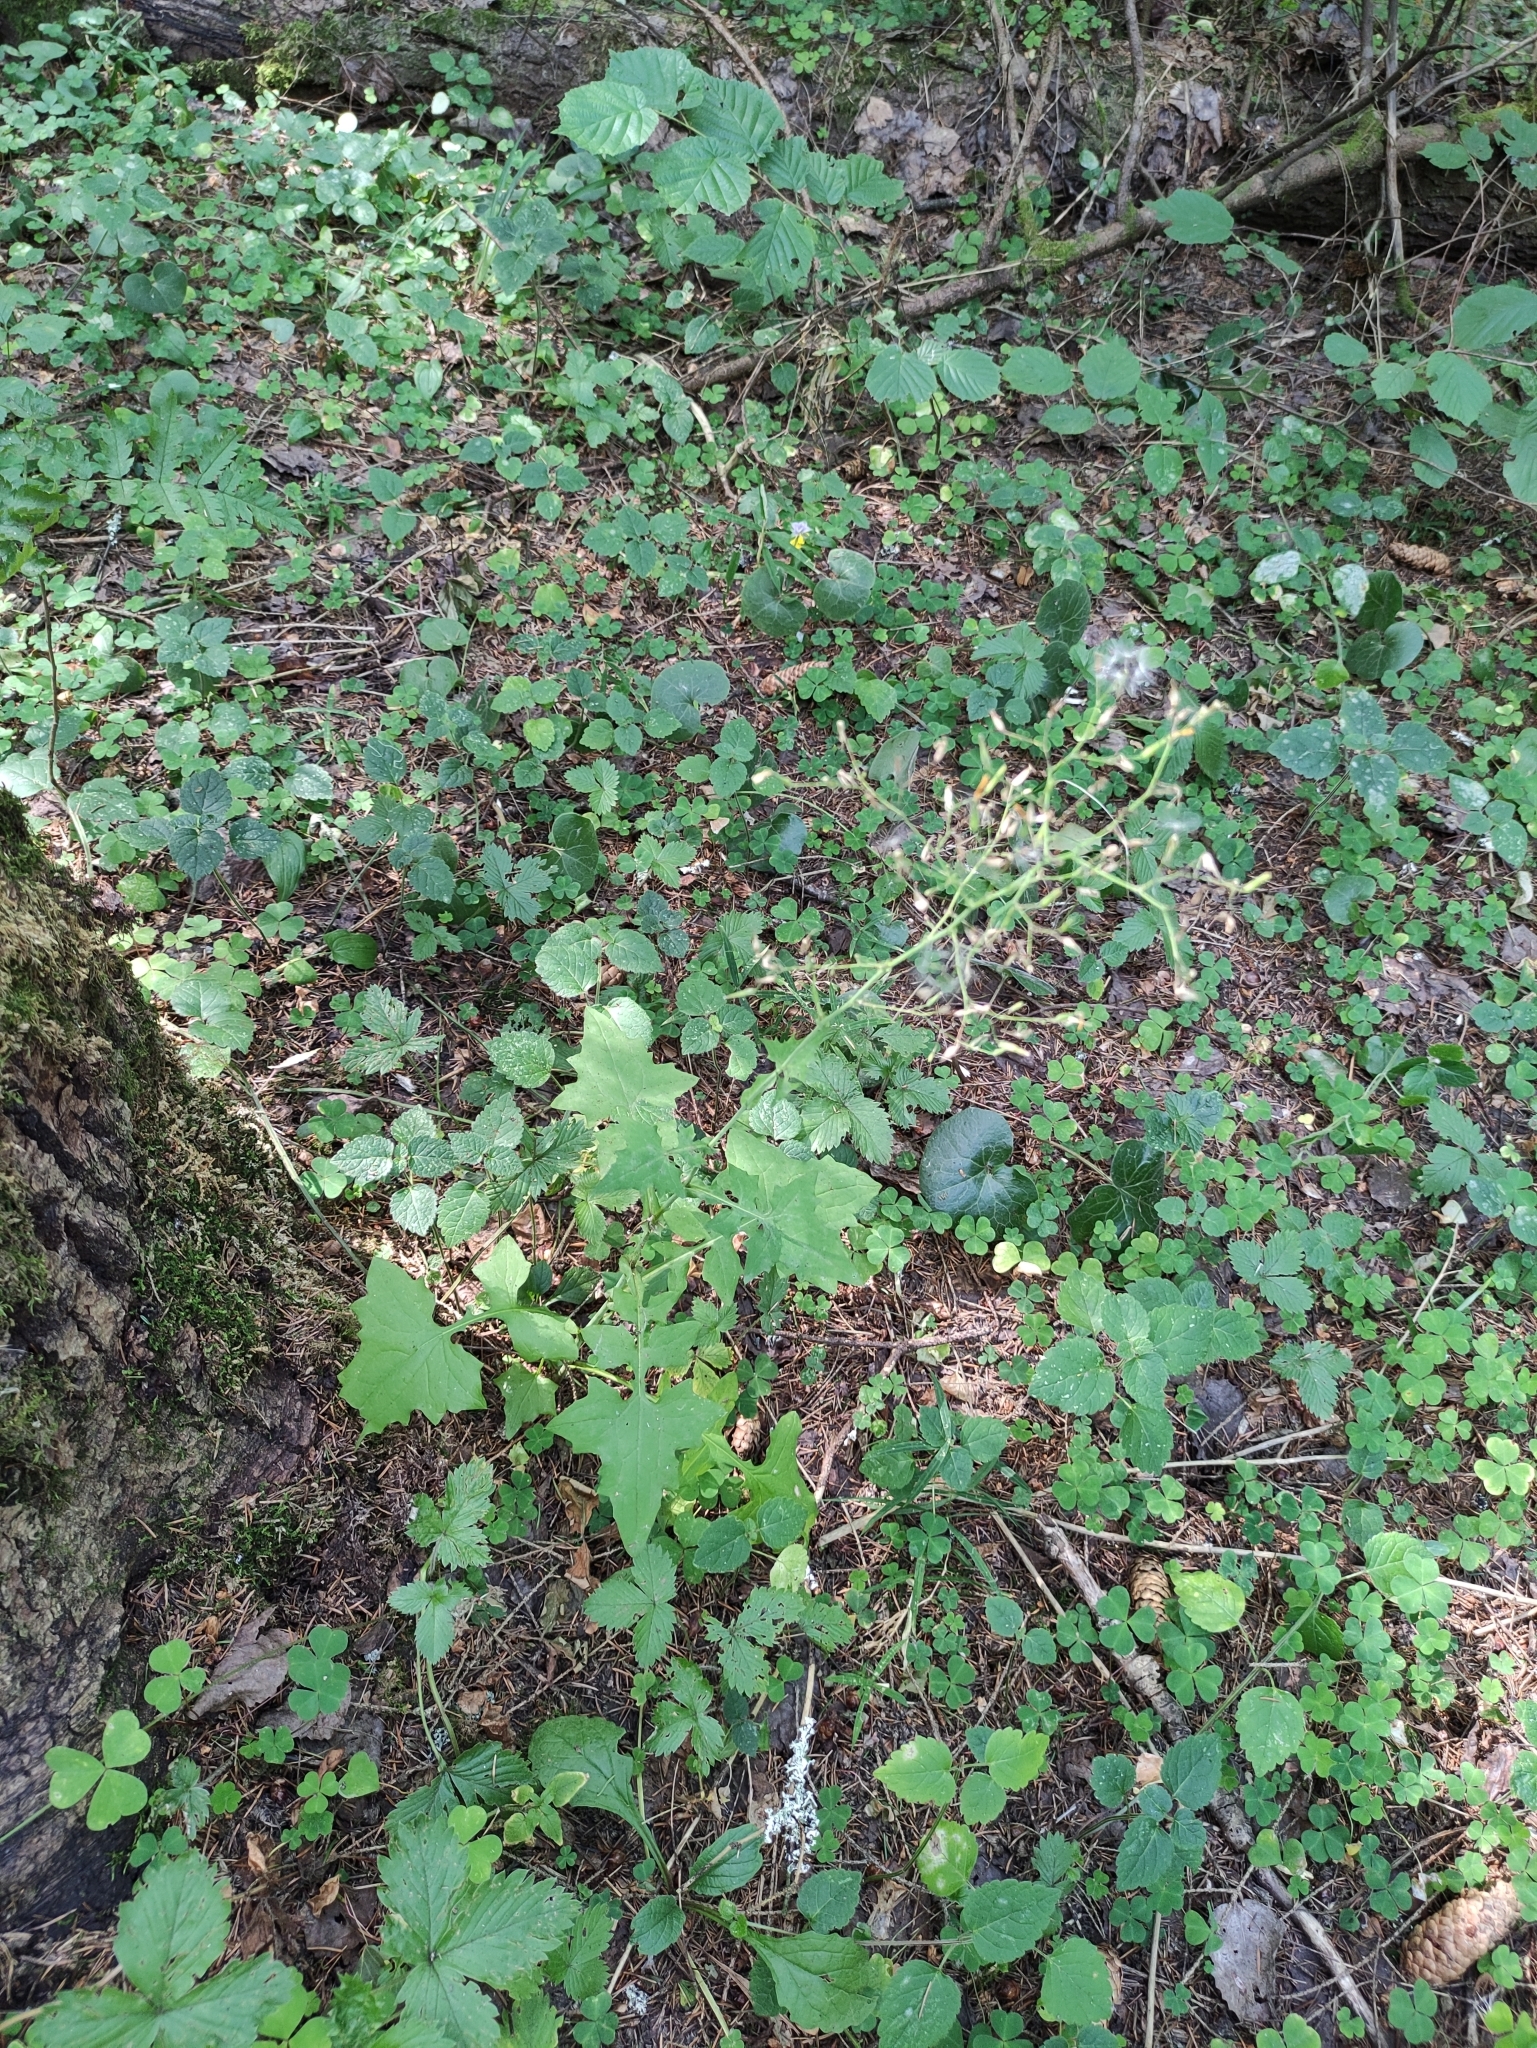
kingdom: Plantae
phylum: Tracheophyta
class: Magnoliopsida
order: Asterales
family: Asteraceae
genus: Mycelis
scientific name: Mycelis muralis
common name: Wall lettuce
